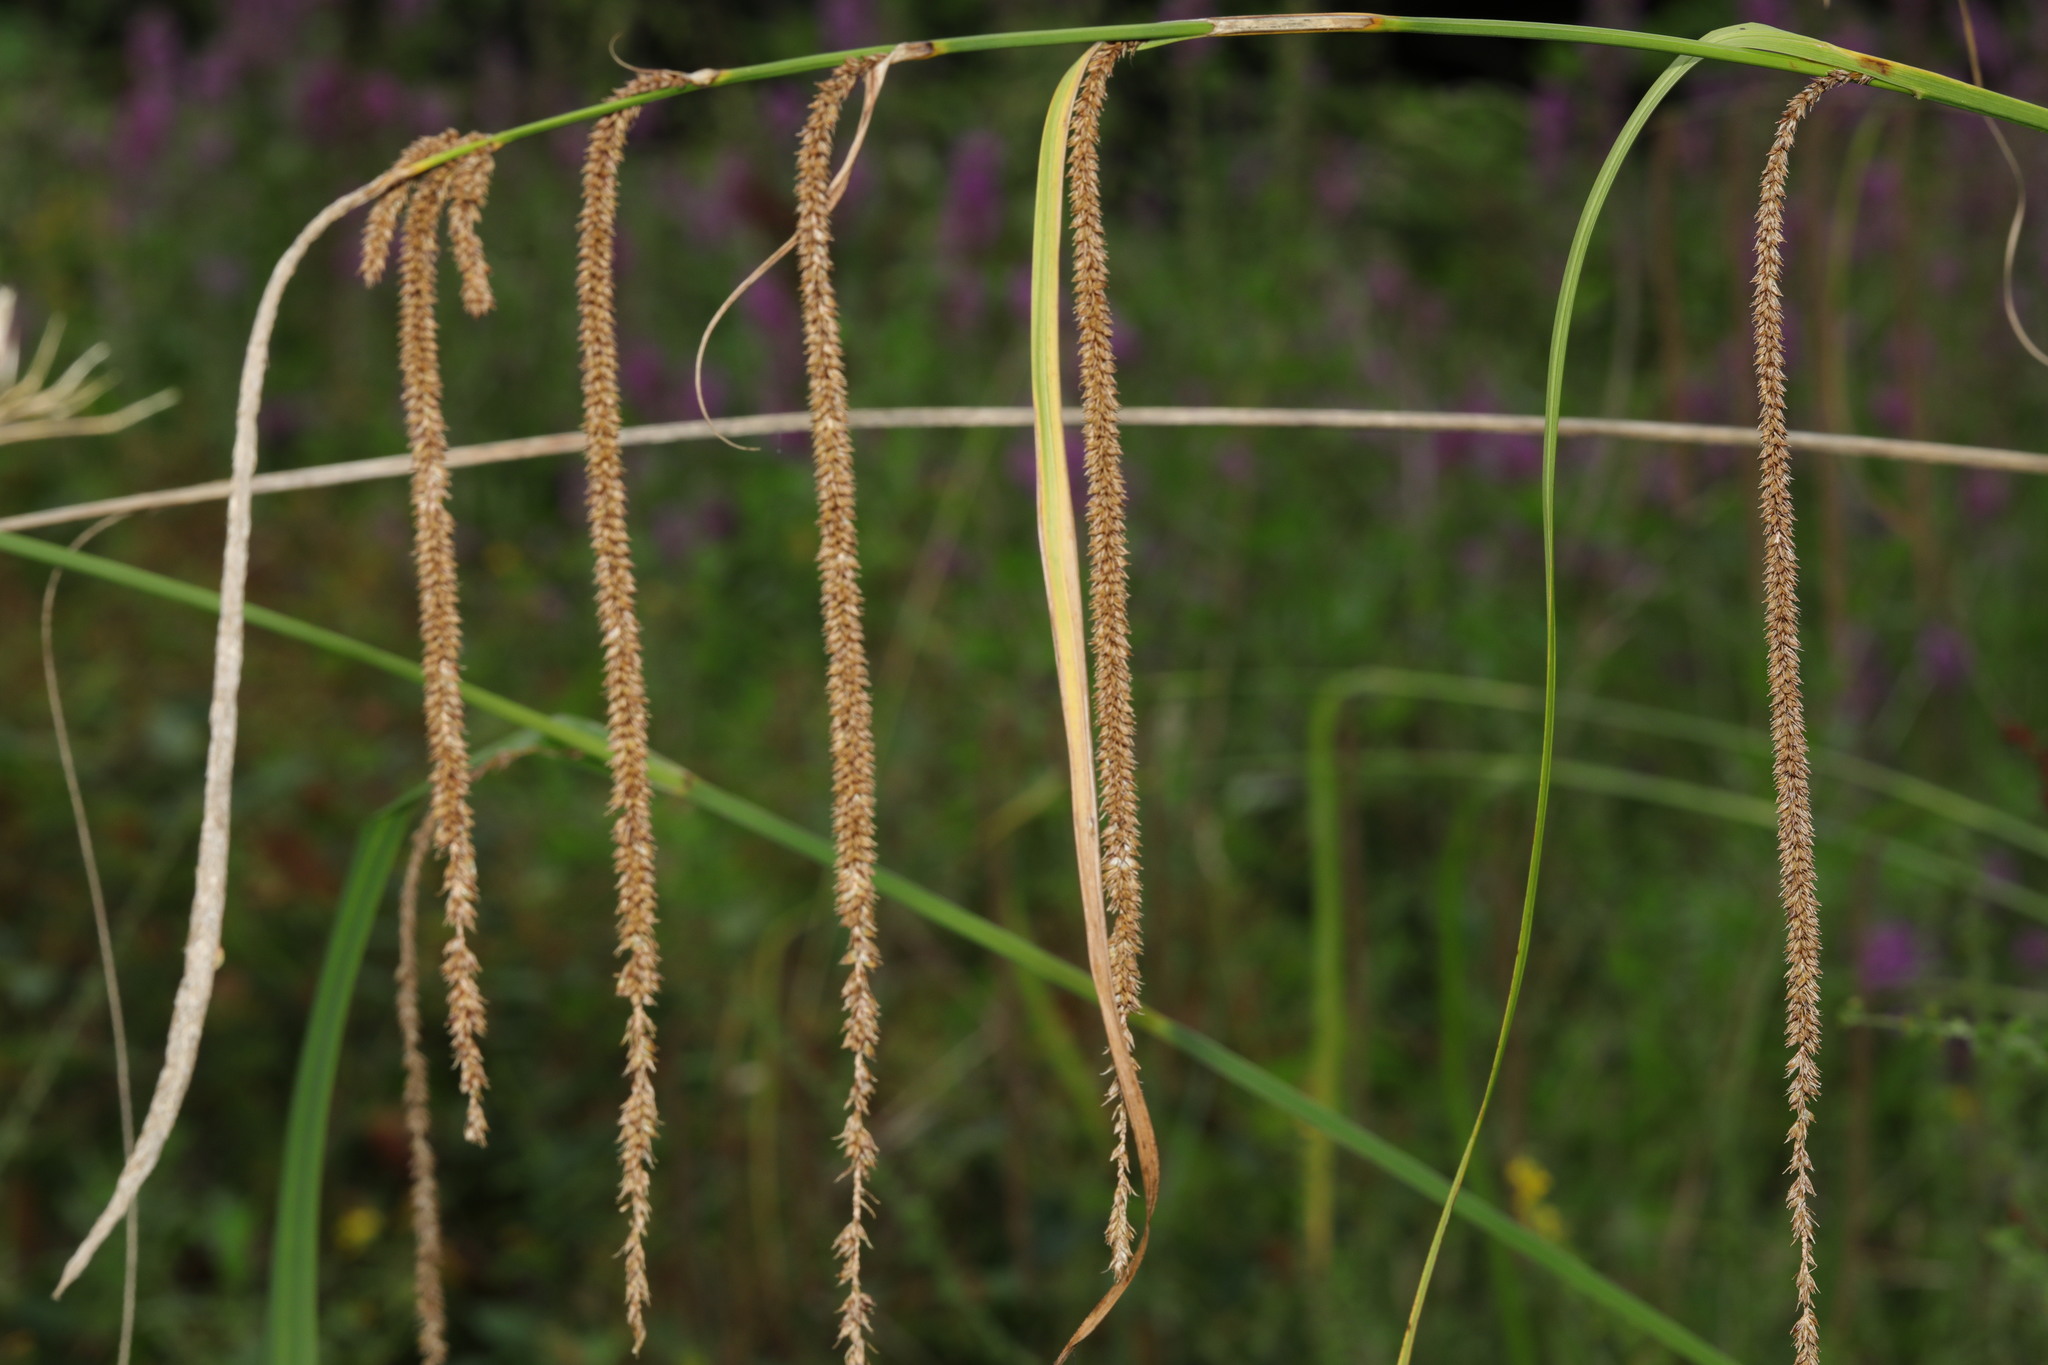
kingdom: Plantae
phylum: Tracheophyta
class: Liliopsida
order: Poales
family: Cyperaceae
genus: Carex
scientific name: Carex pendula
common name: Pendulous sedge
